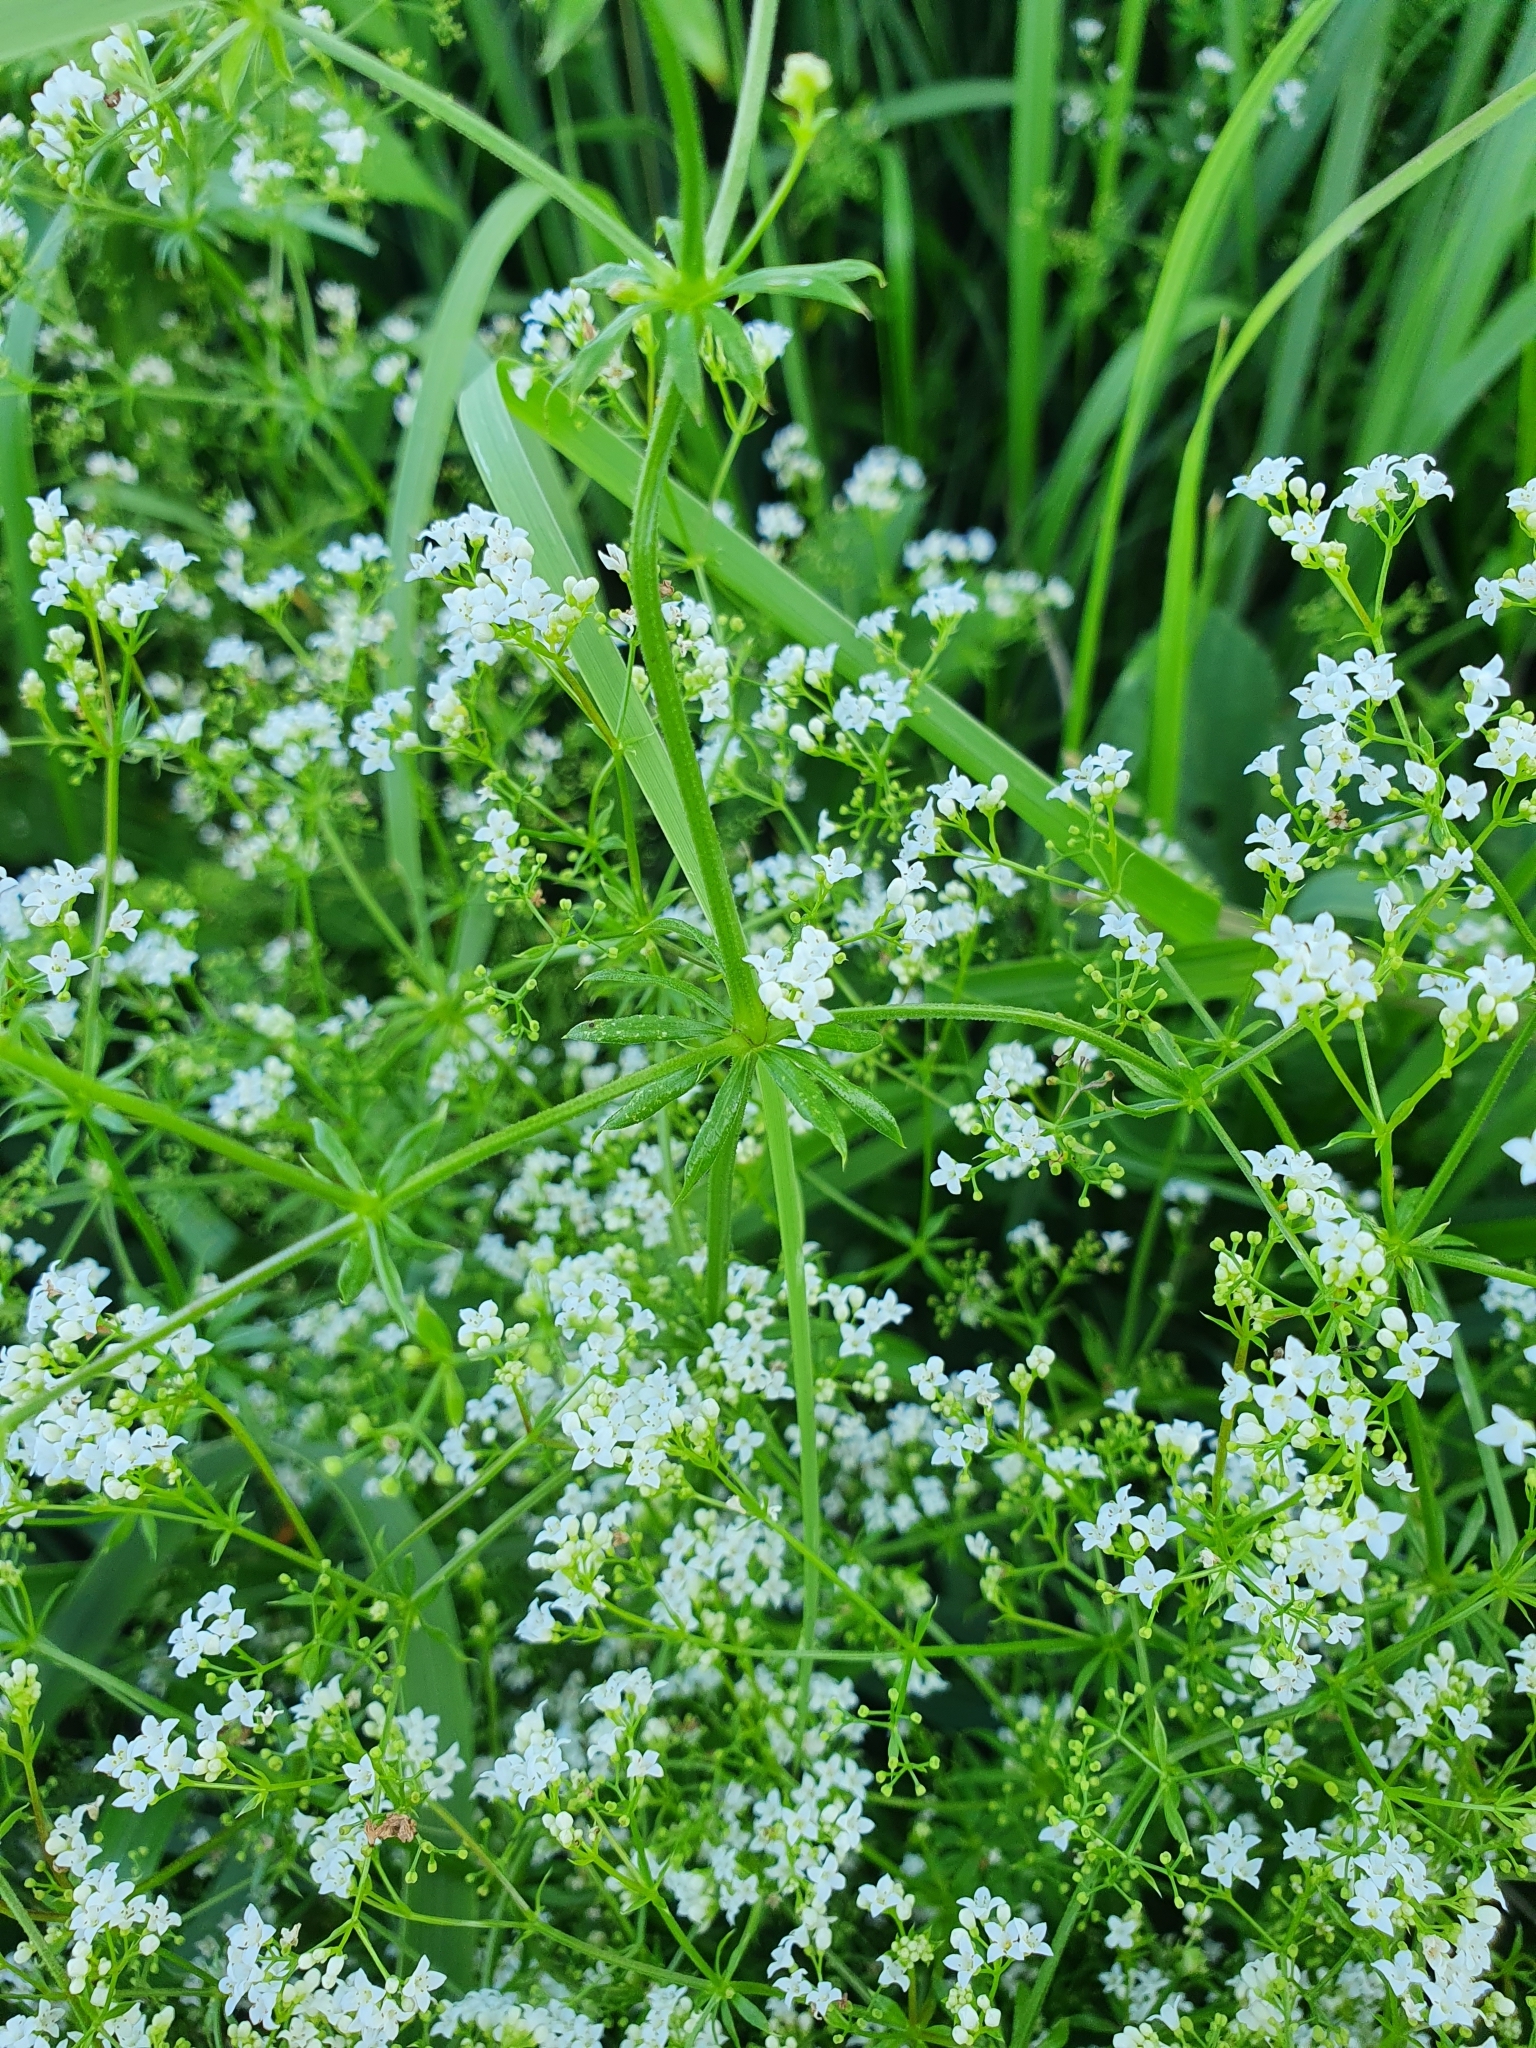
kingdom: Plantae
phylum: Tracheophyta
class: Magnoliopsida
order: Gentianales
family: Rubiaceae
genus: Galium
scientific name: Galium pseudorivale
